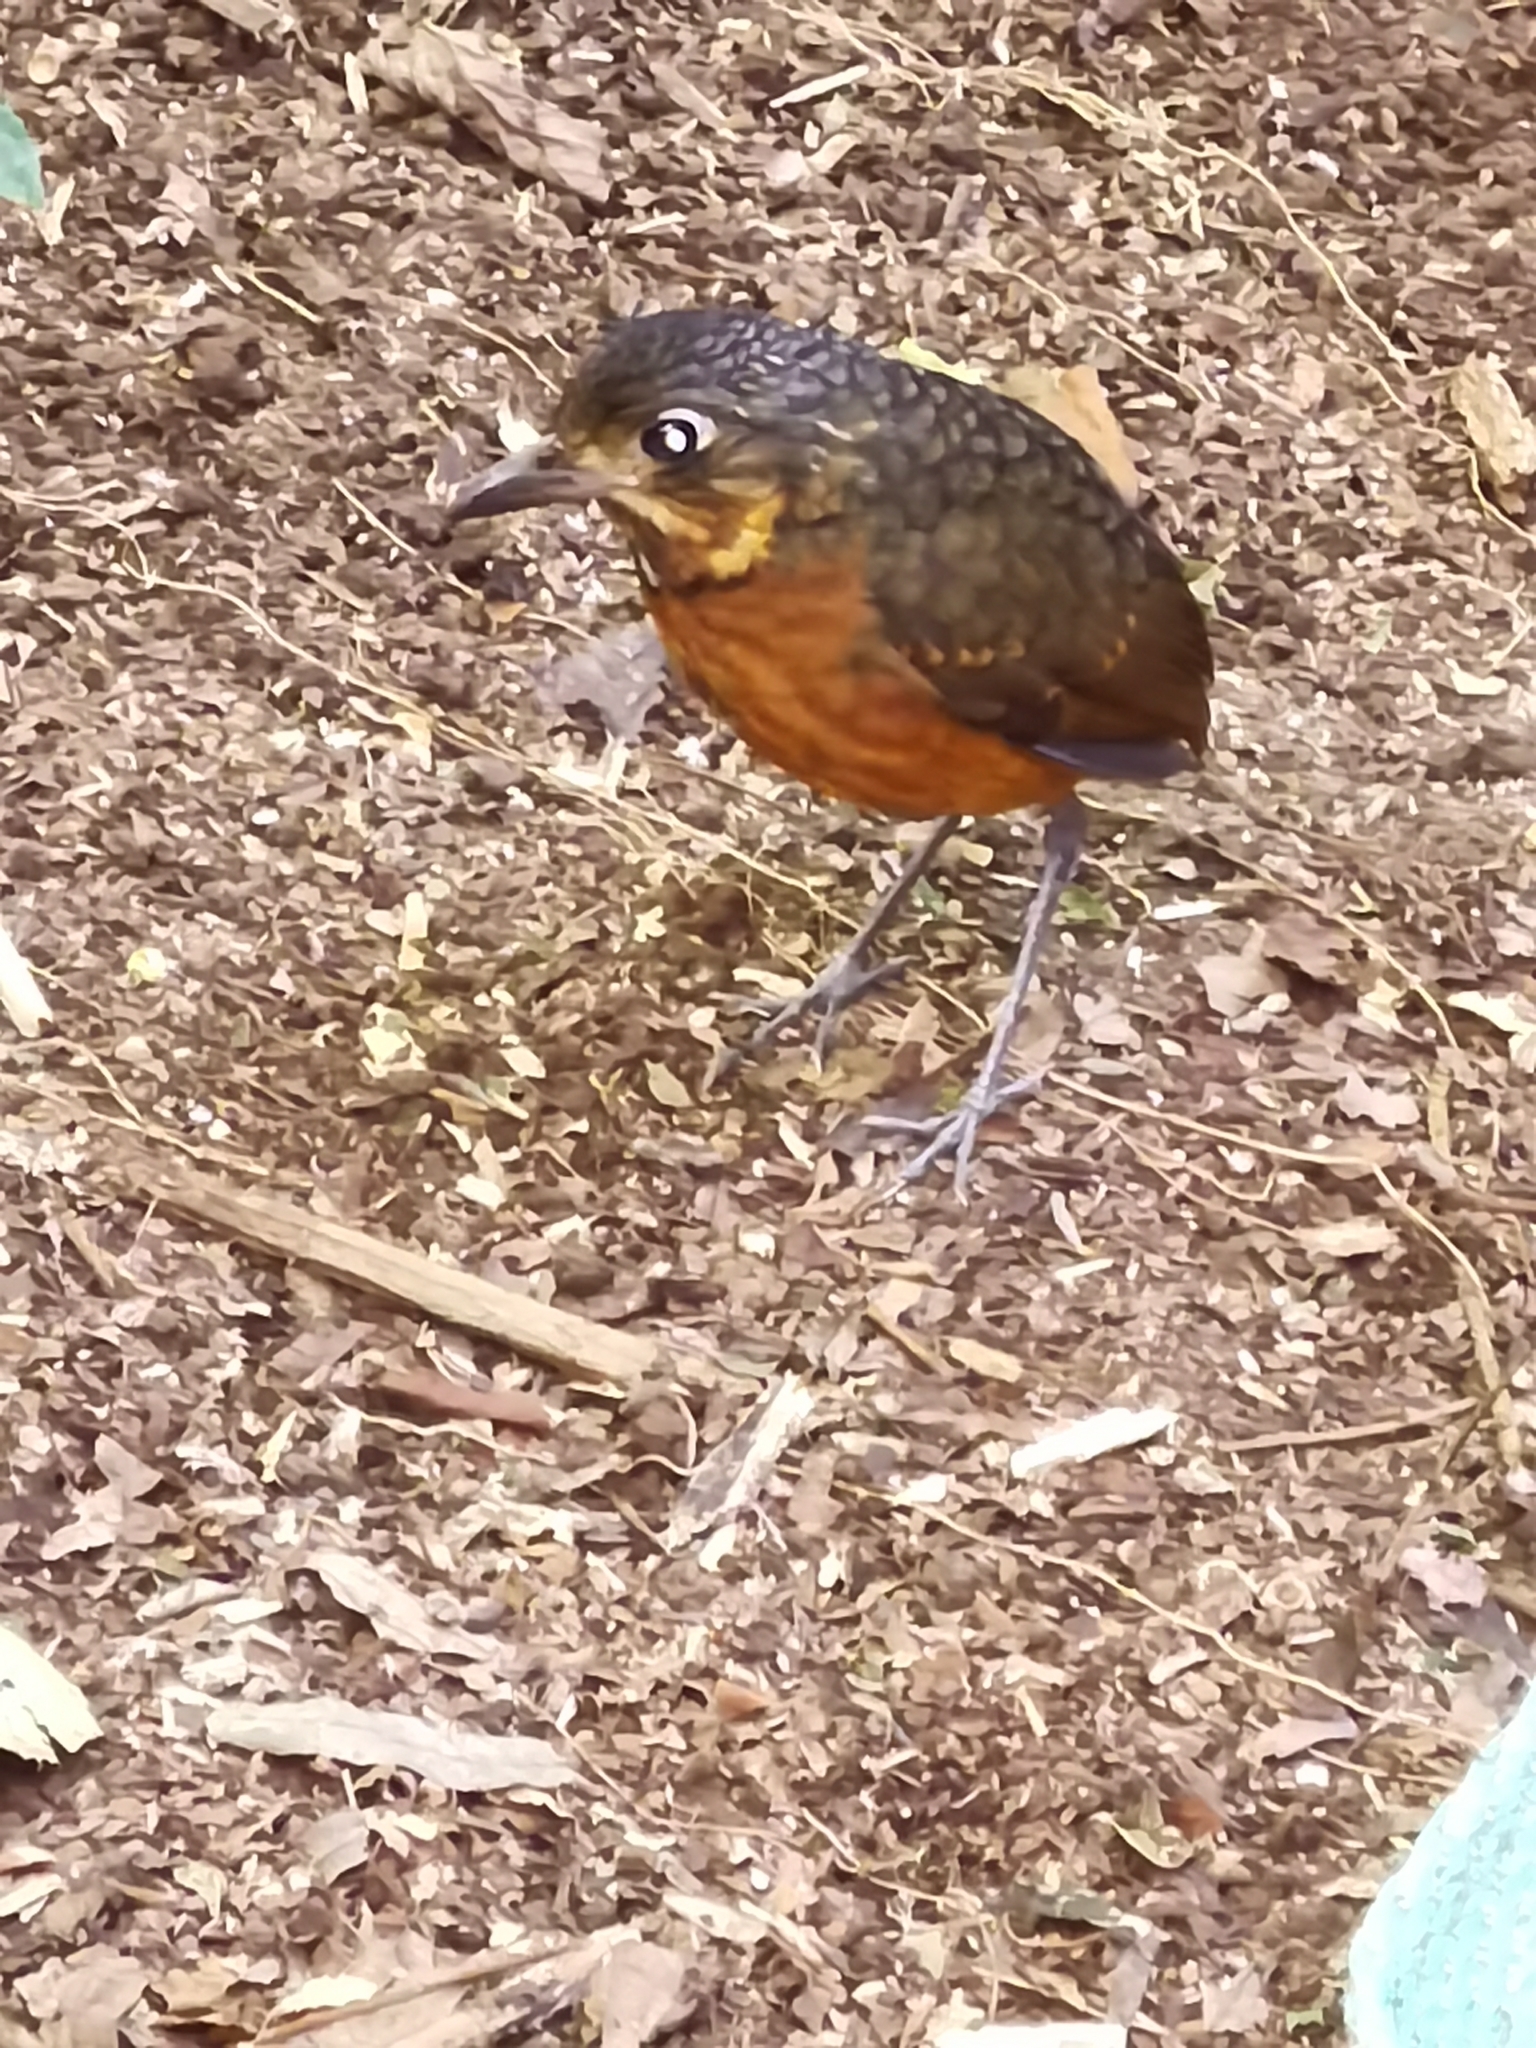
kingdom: Animalia
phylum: Chordata
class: Aves
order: Passeriformes
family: Grallariidae
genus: Grallaria
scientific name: Grallaria guatimalensis
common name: Scaled antpitta
